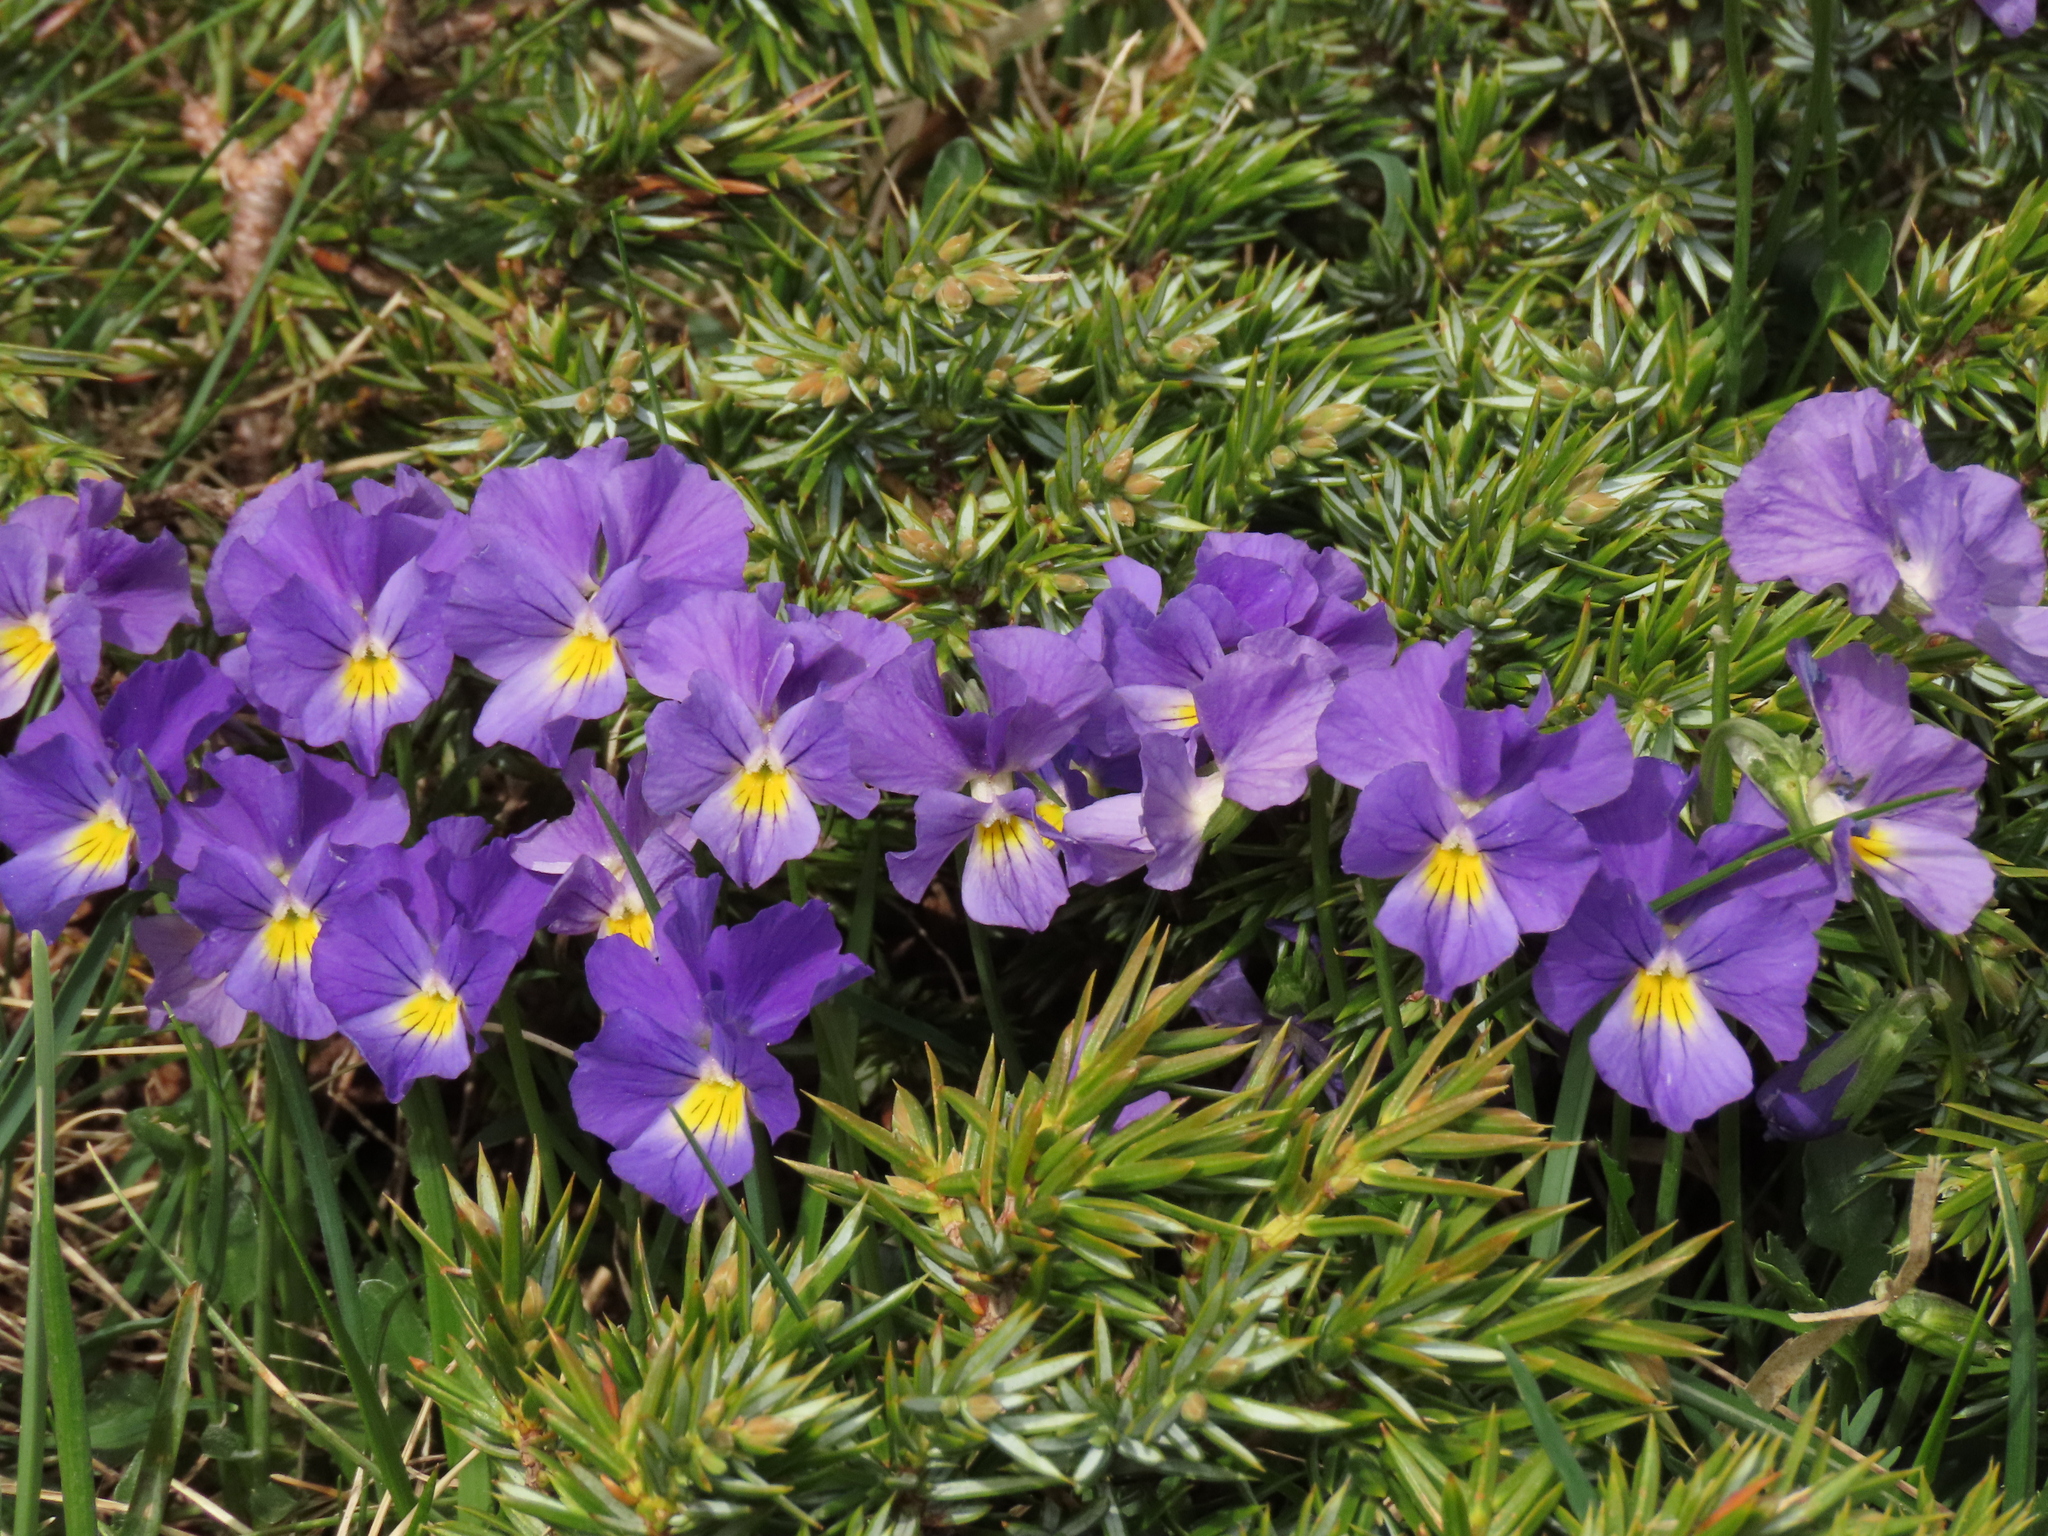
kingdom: Plantae
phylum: Tracheophyta
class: Magnoliopsida
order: Malpighiales
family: Violaceae
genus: Viola
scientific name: Viola eugeniae
